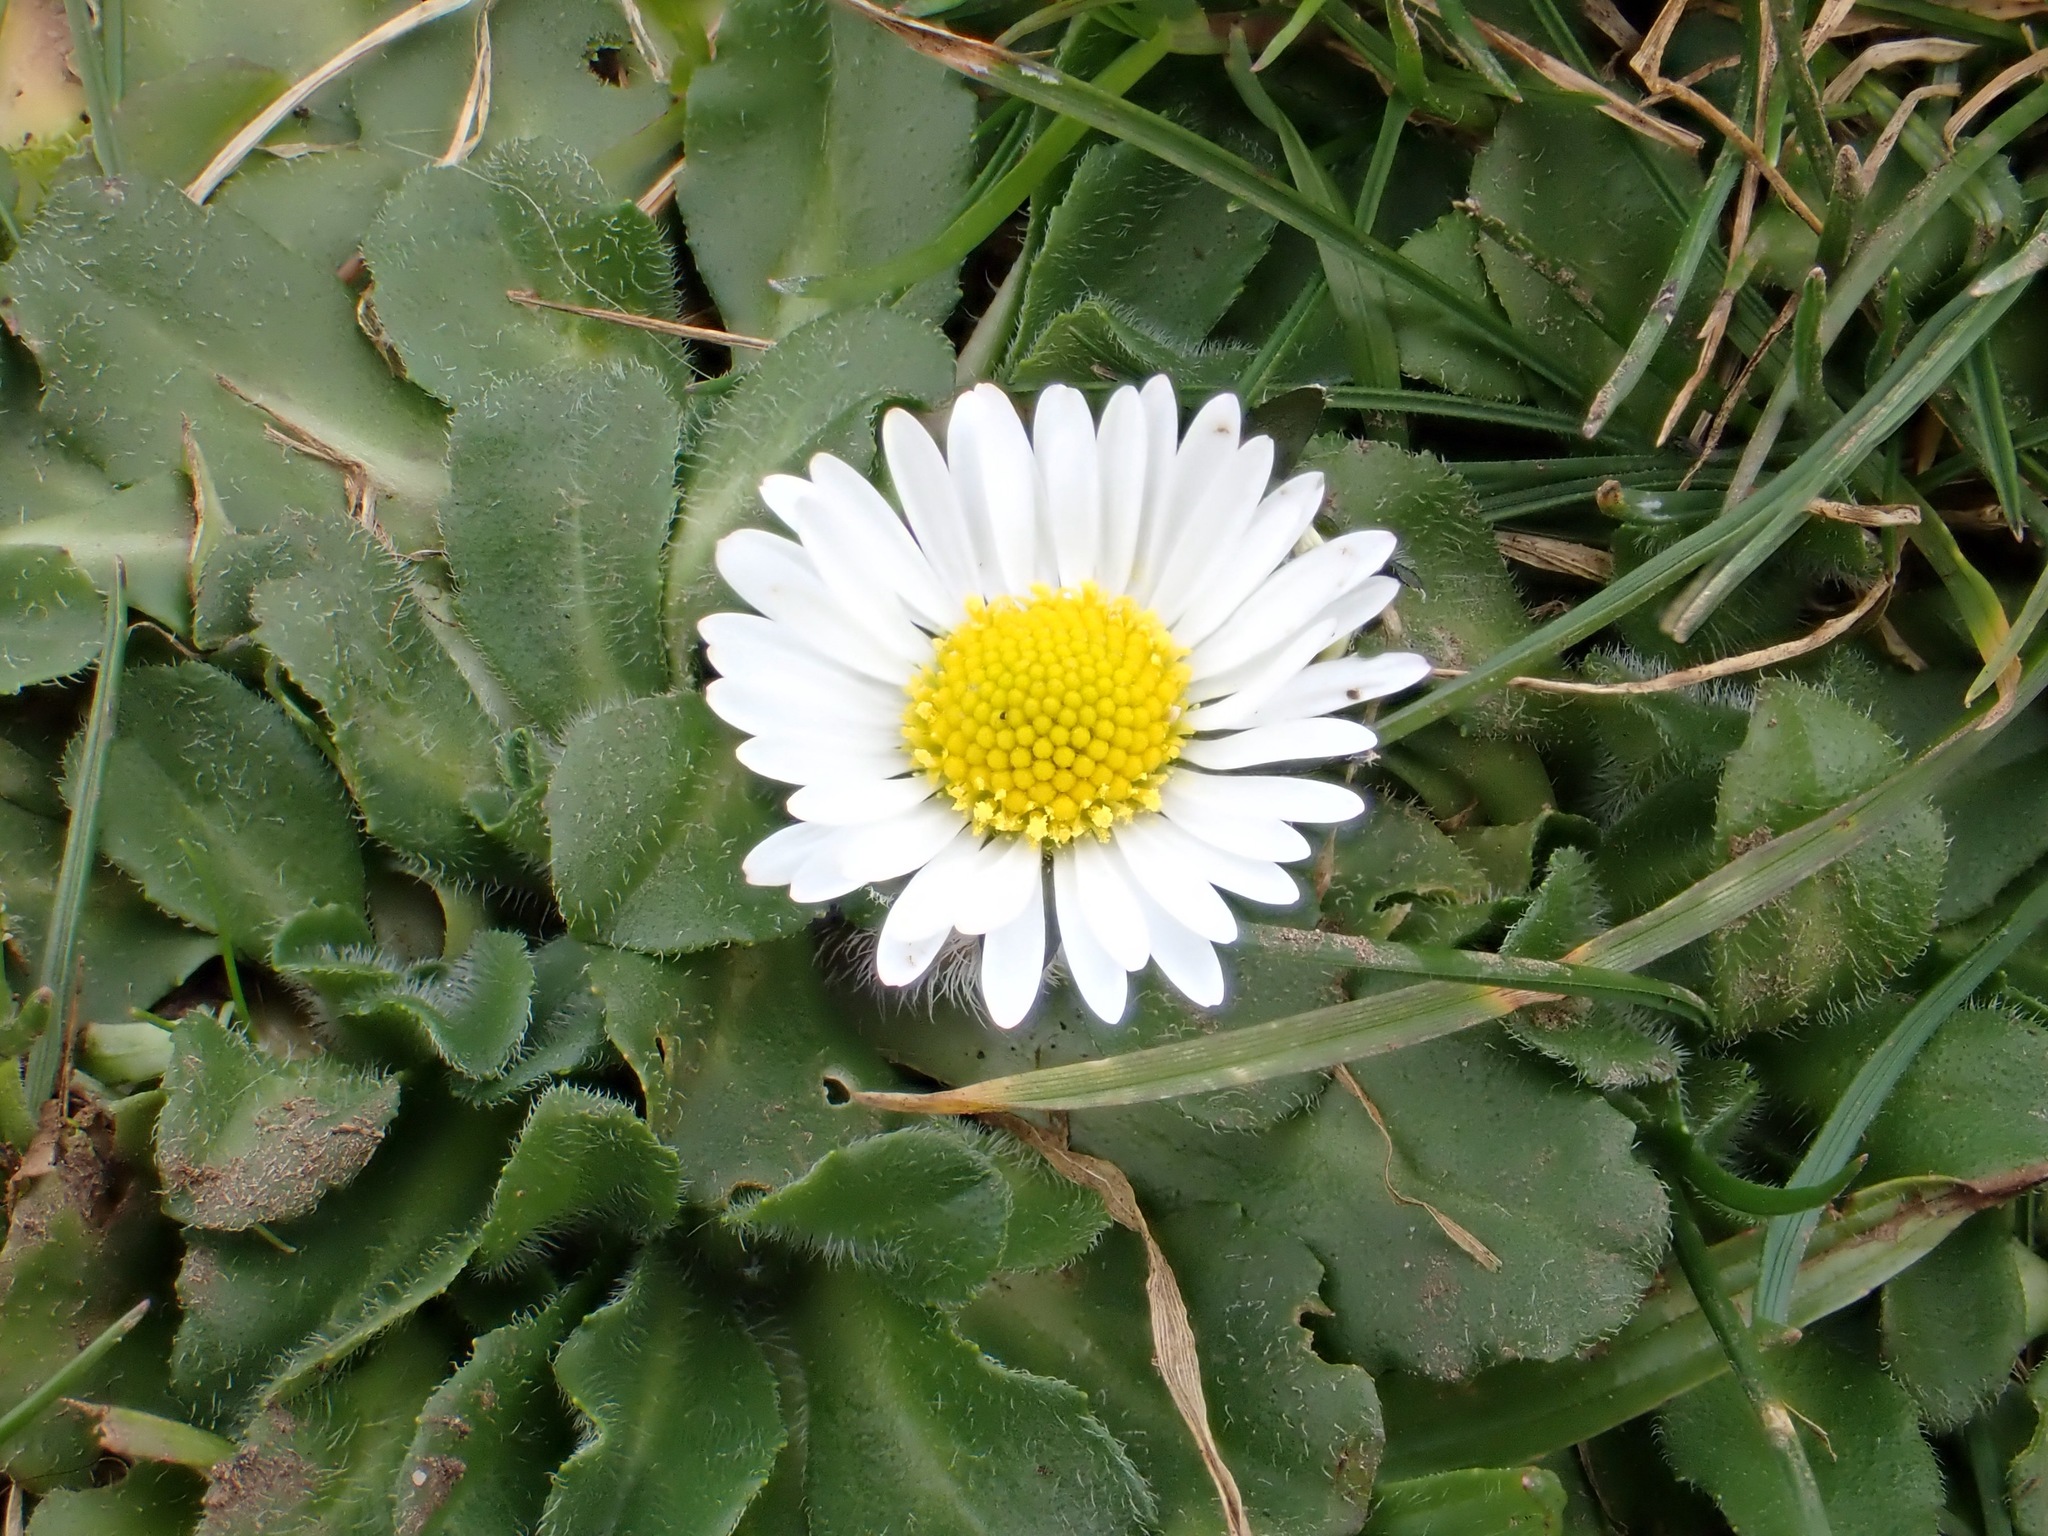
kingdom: Plantae
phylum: Tracheophyta
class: Magnoliopsida
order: Asterales
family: Asteraceae
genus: Bellis
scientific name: Bellis perennis
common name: Lawndaisy
